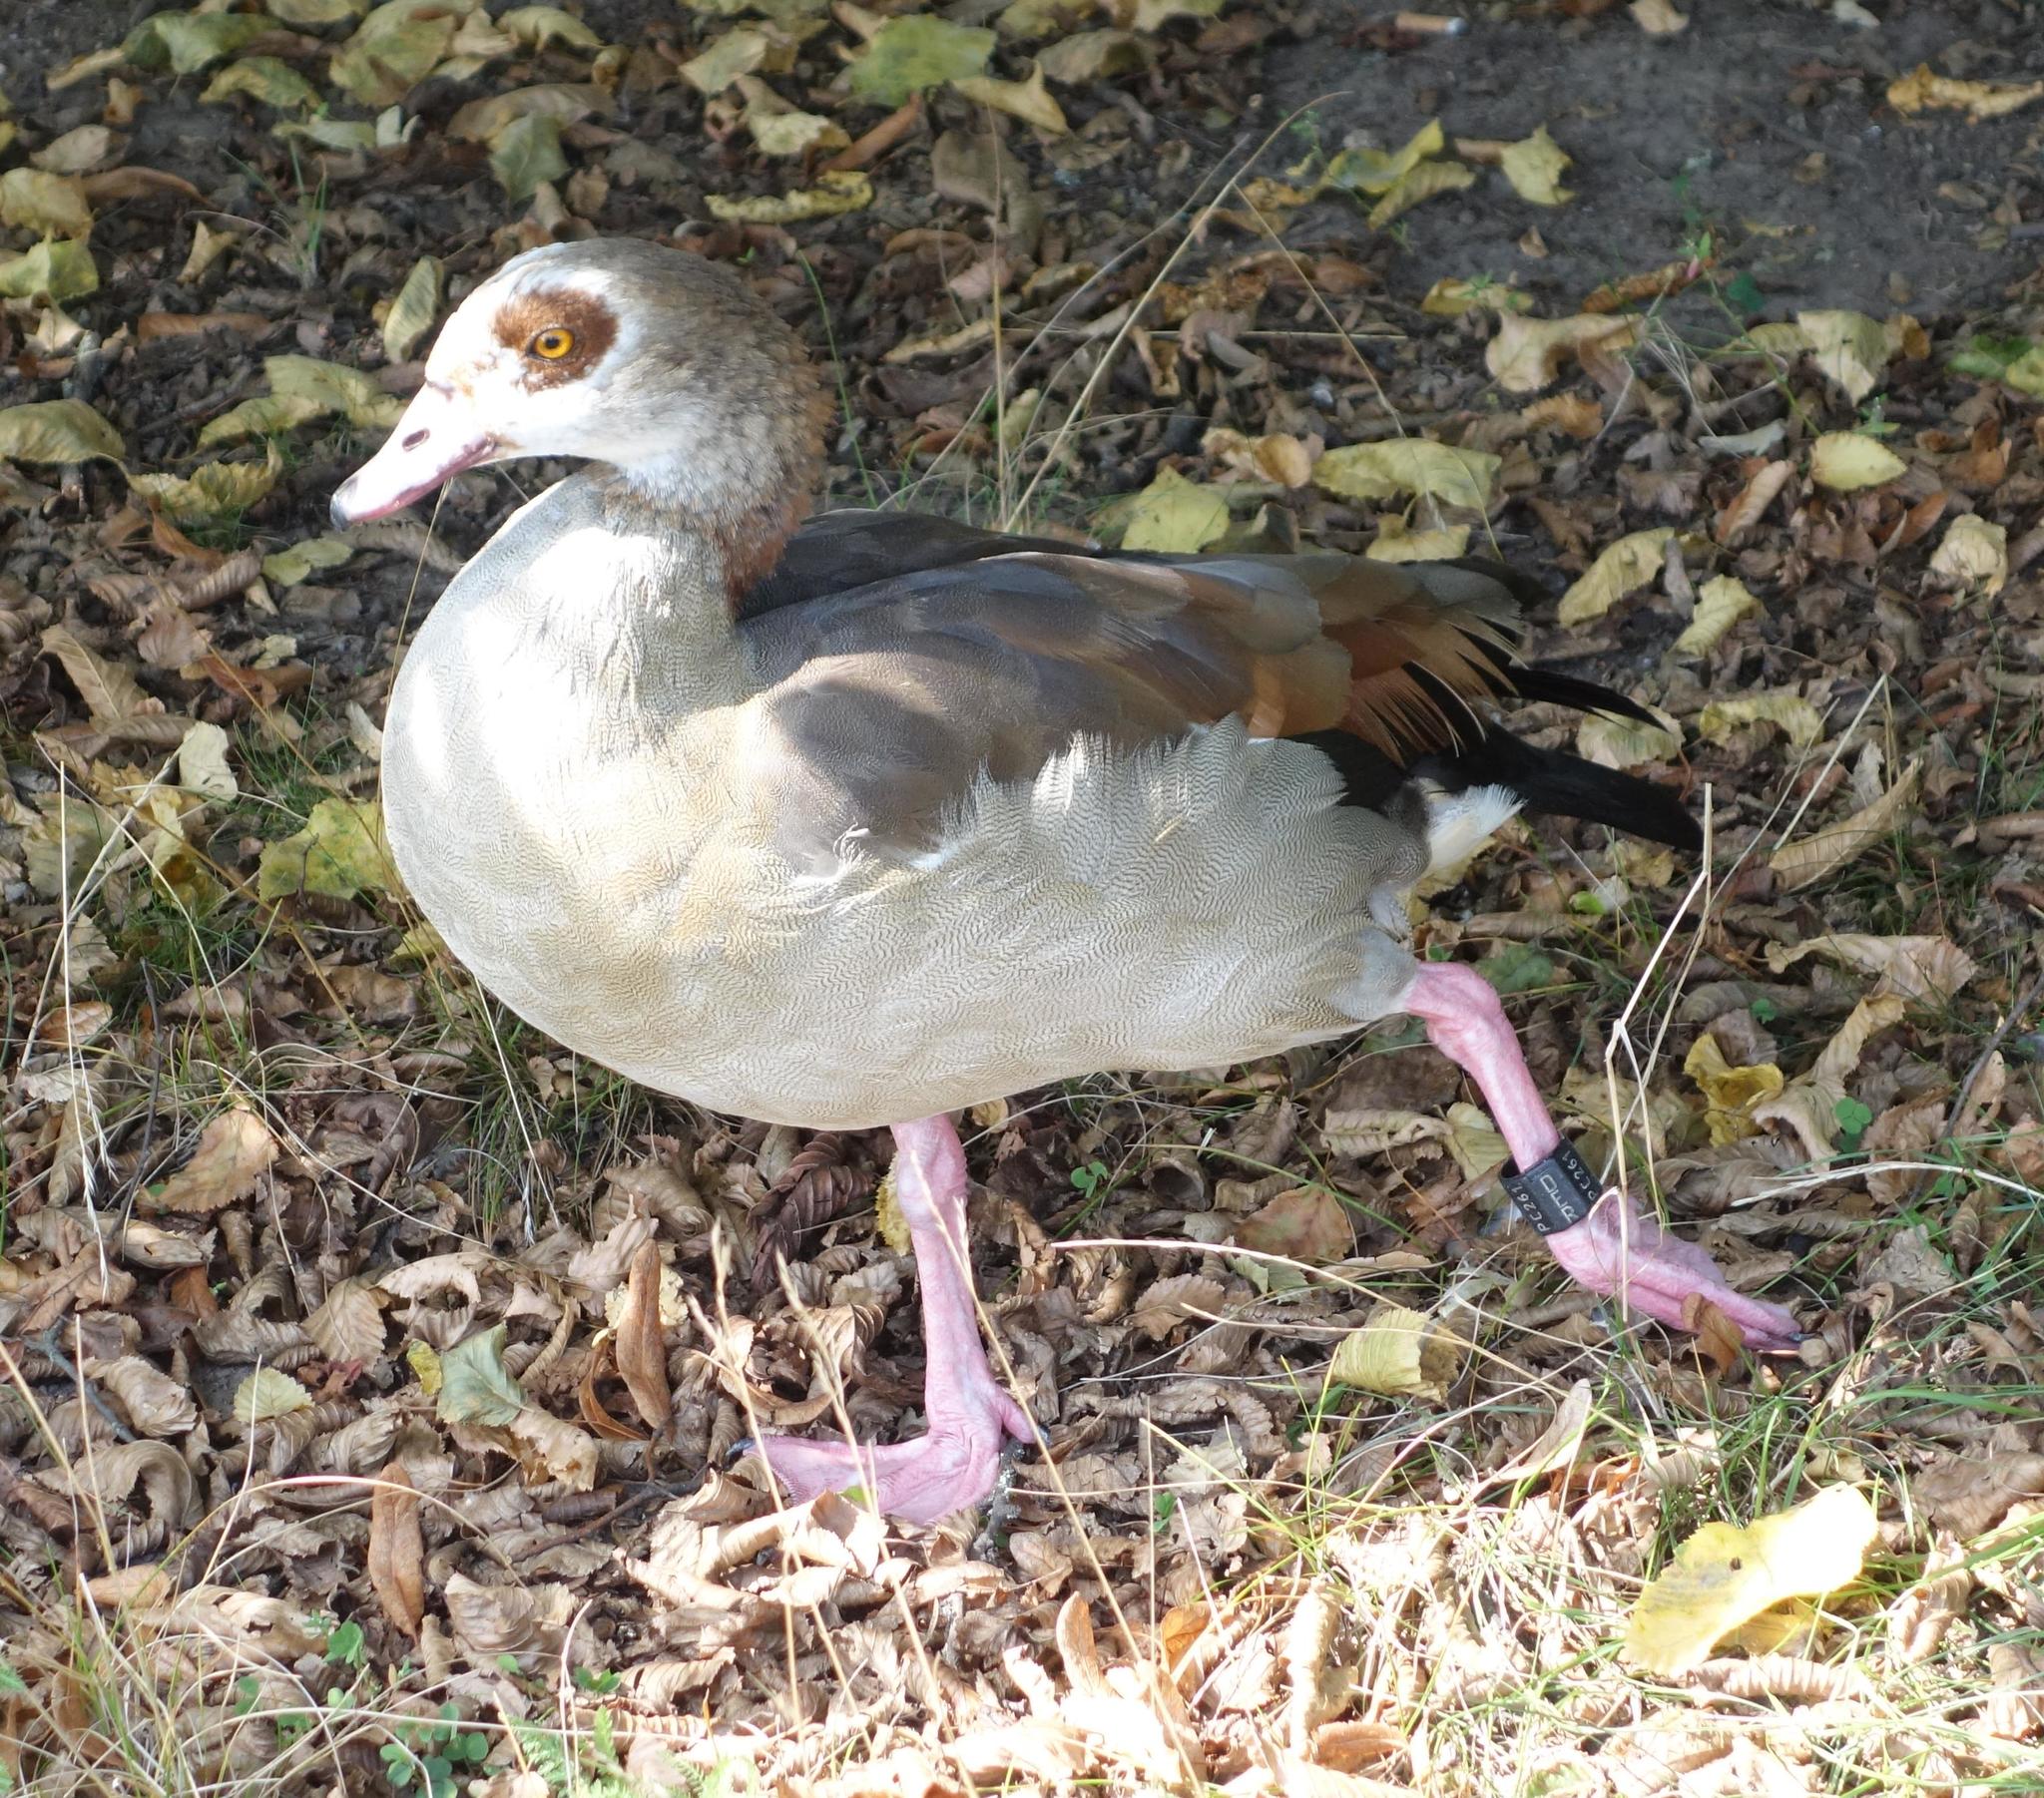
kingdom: Animalia
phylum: Chordata
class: Aves
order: Anseriformes
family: Anatidae
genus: Alopochen
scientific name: Alopochen aegyptiaca
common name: Egyptian goose
